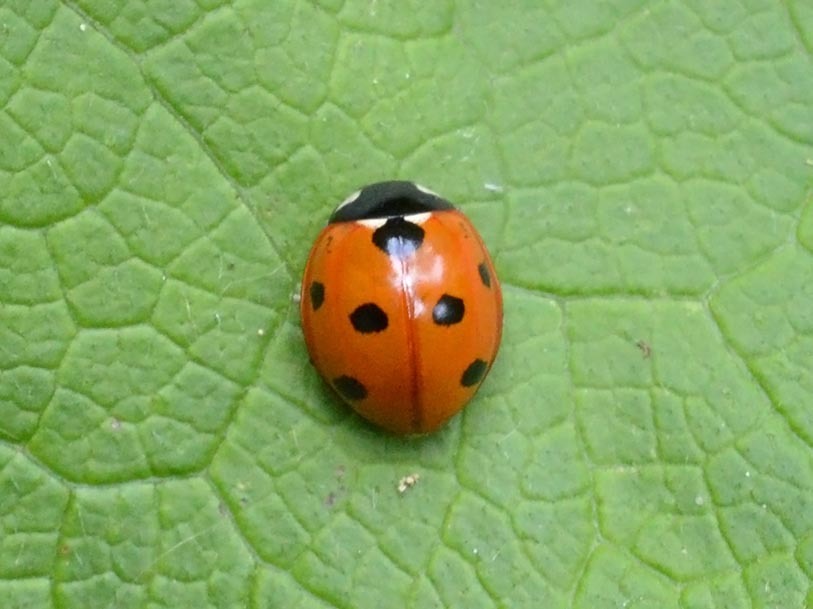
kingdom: Animalia
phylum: Arthropoda
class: Insecta
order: Coleoptera
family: Coccinellidae
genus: Coccinella
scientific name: Coccinella septempunctata
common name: Sevenspotted lady beetle
